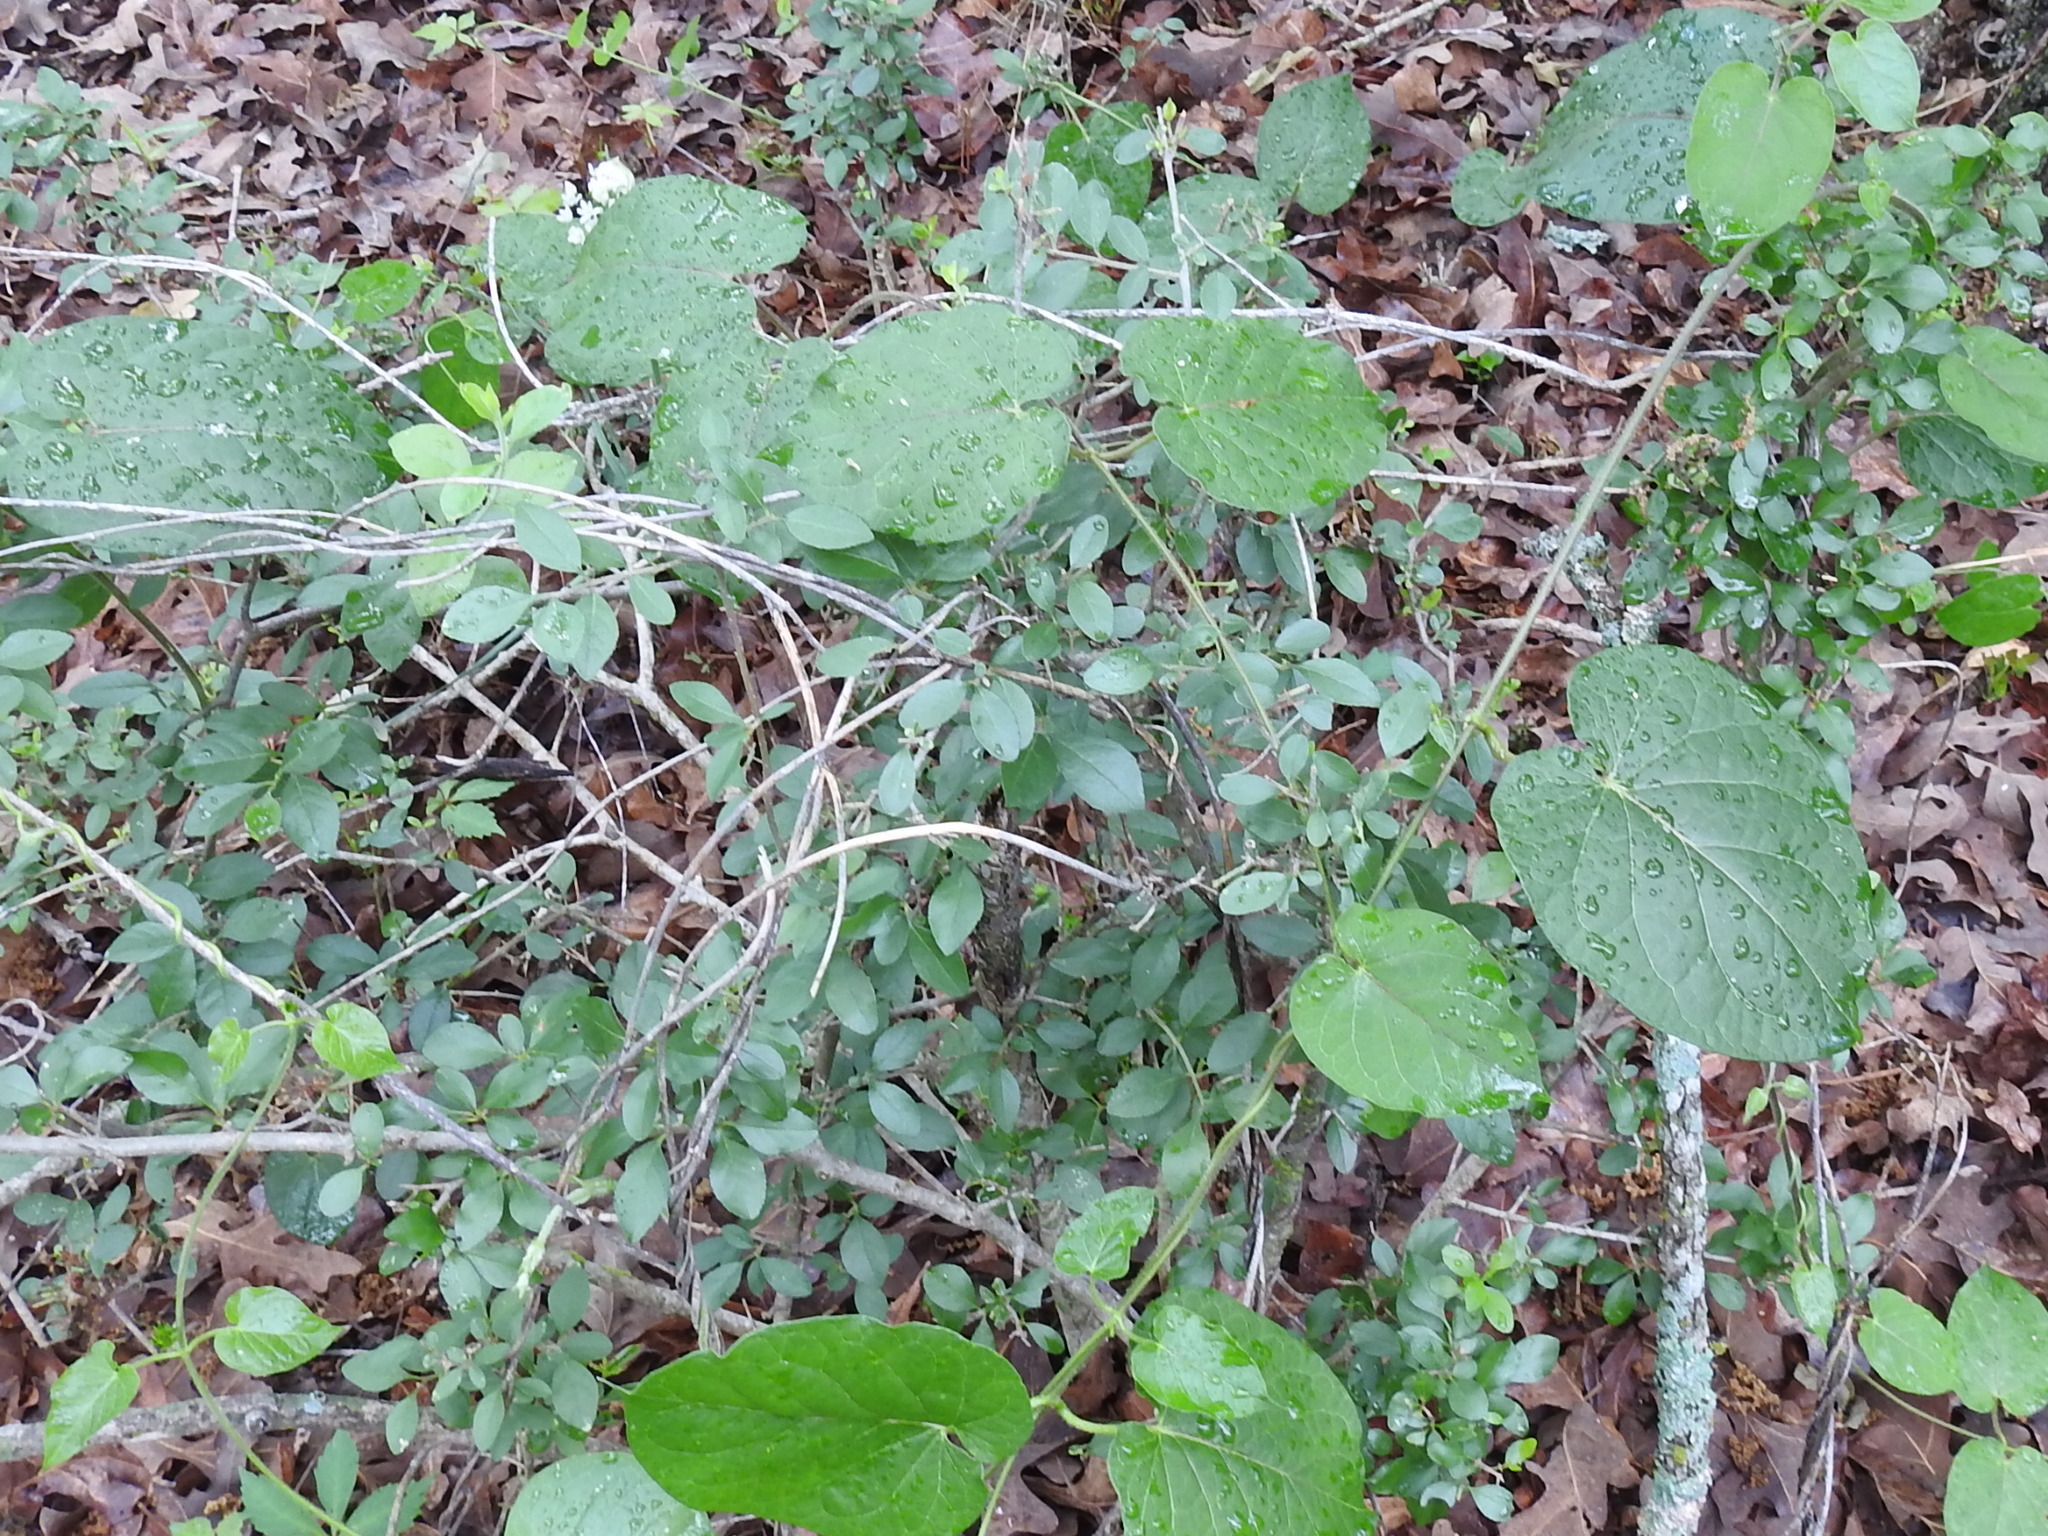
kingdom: Plantae
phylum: Tracheophyta
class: Magnoliopsida
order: Gentianales
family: Apocynaceae
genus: Gonolobus
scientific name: Gonolobus suberosus
